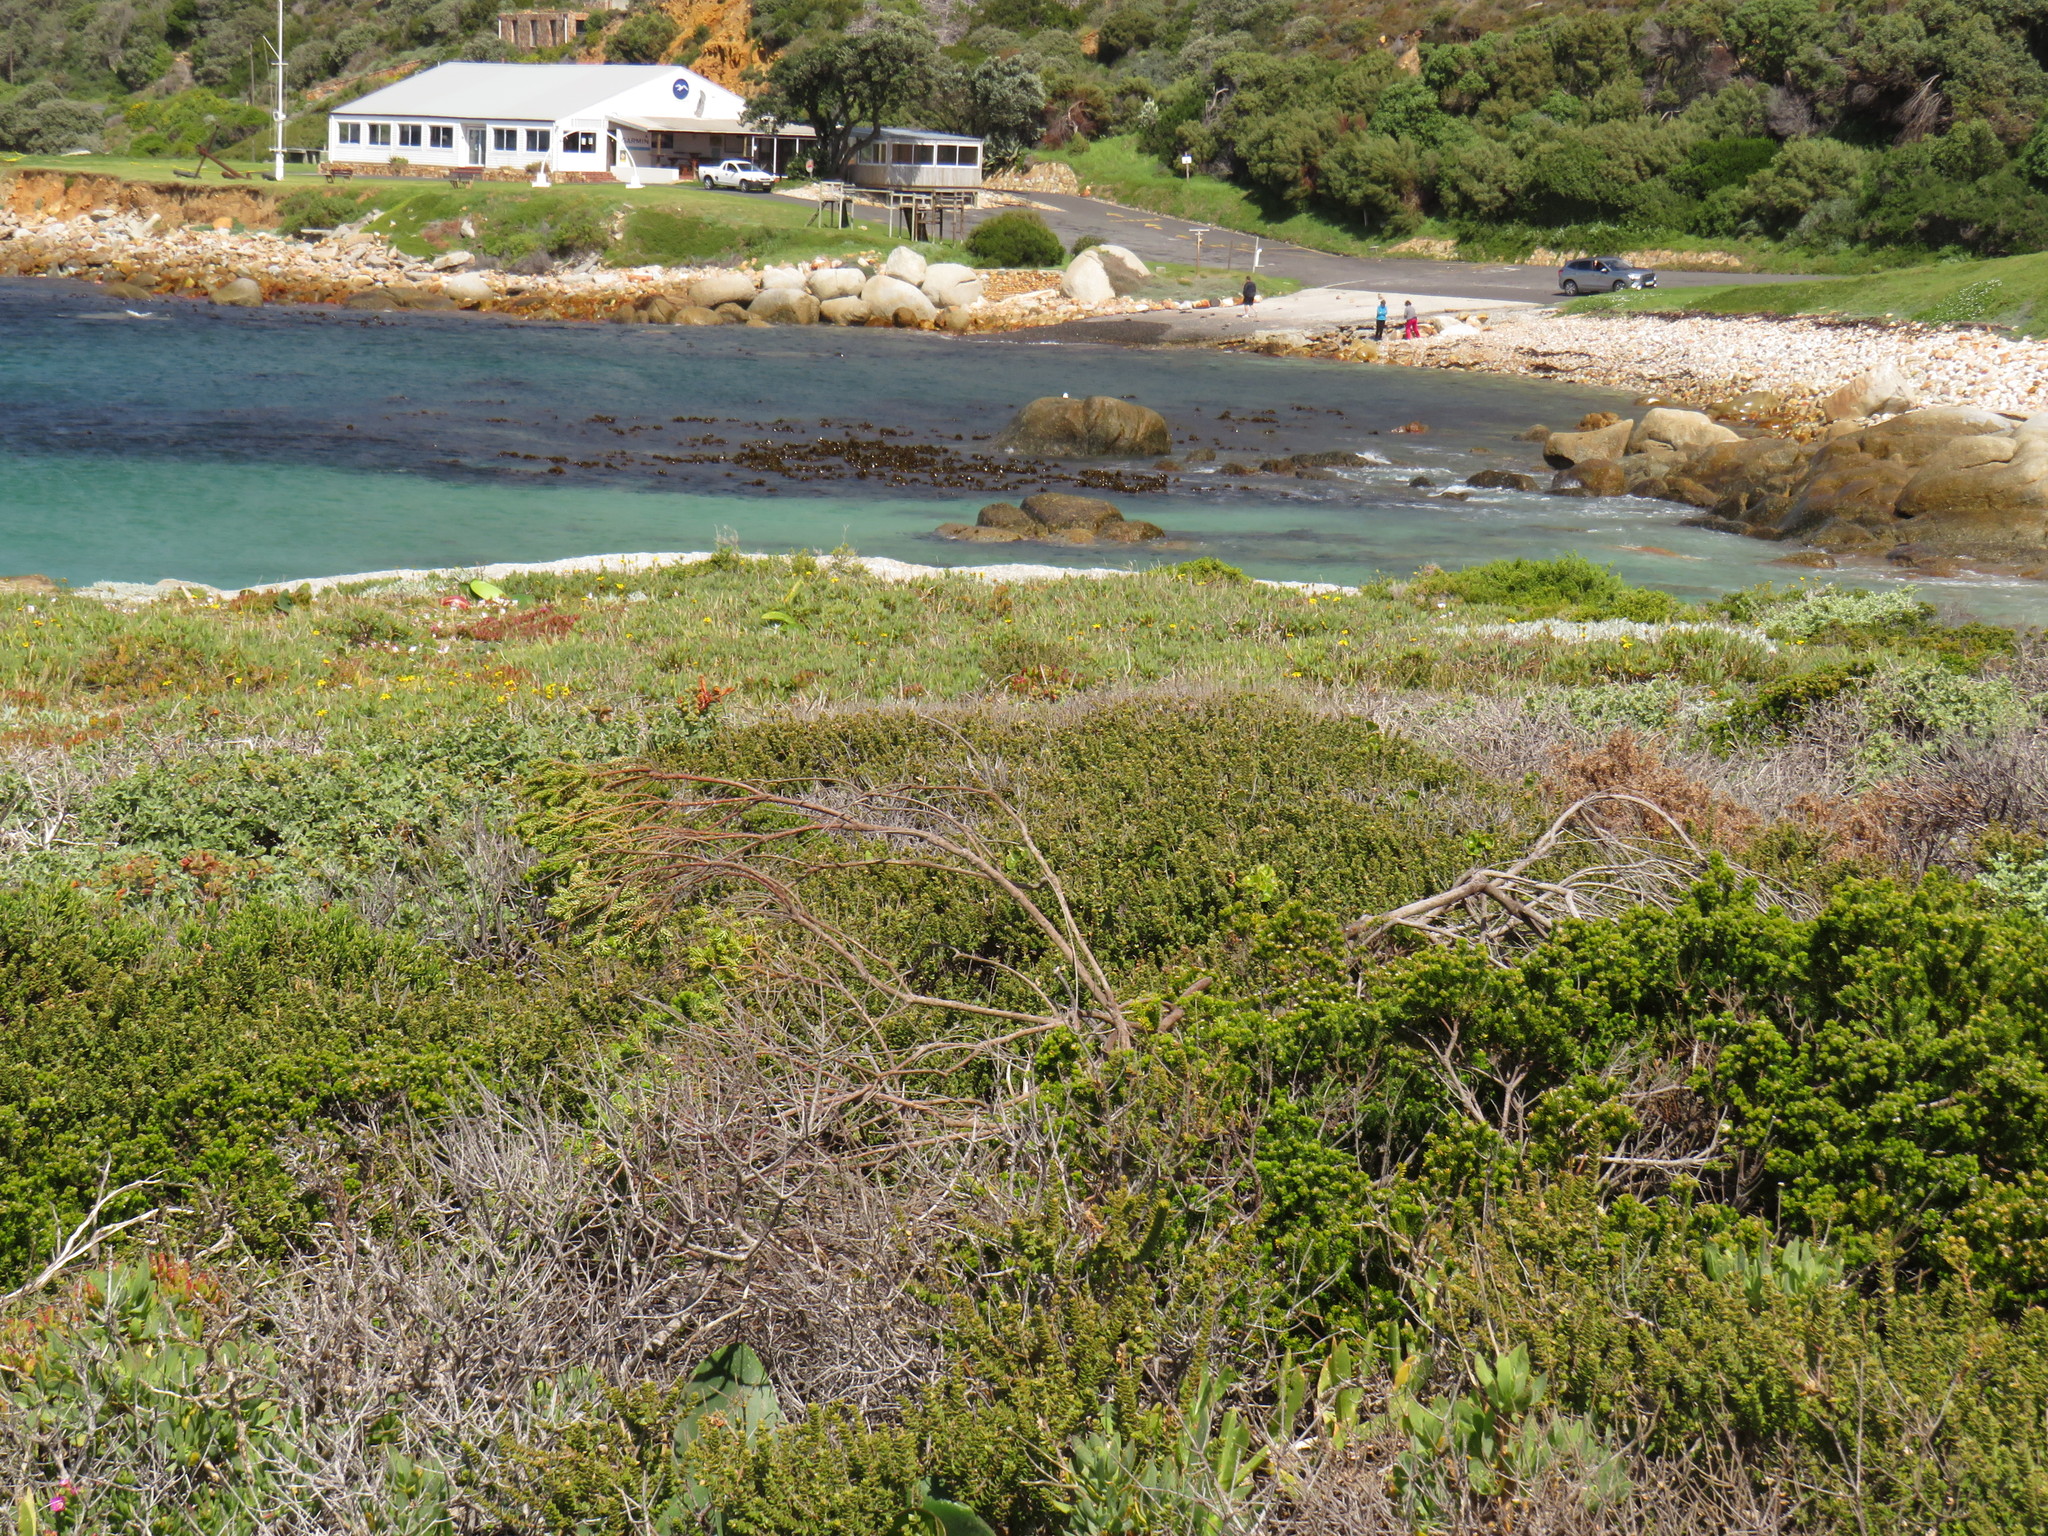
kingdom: Plantae
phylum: Tracheophyta
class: Magnoliopsida
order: Rosales
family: Rhamnaceae
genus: Phylica
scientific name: Phylica ericoides
